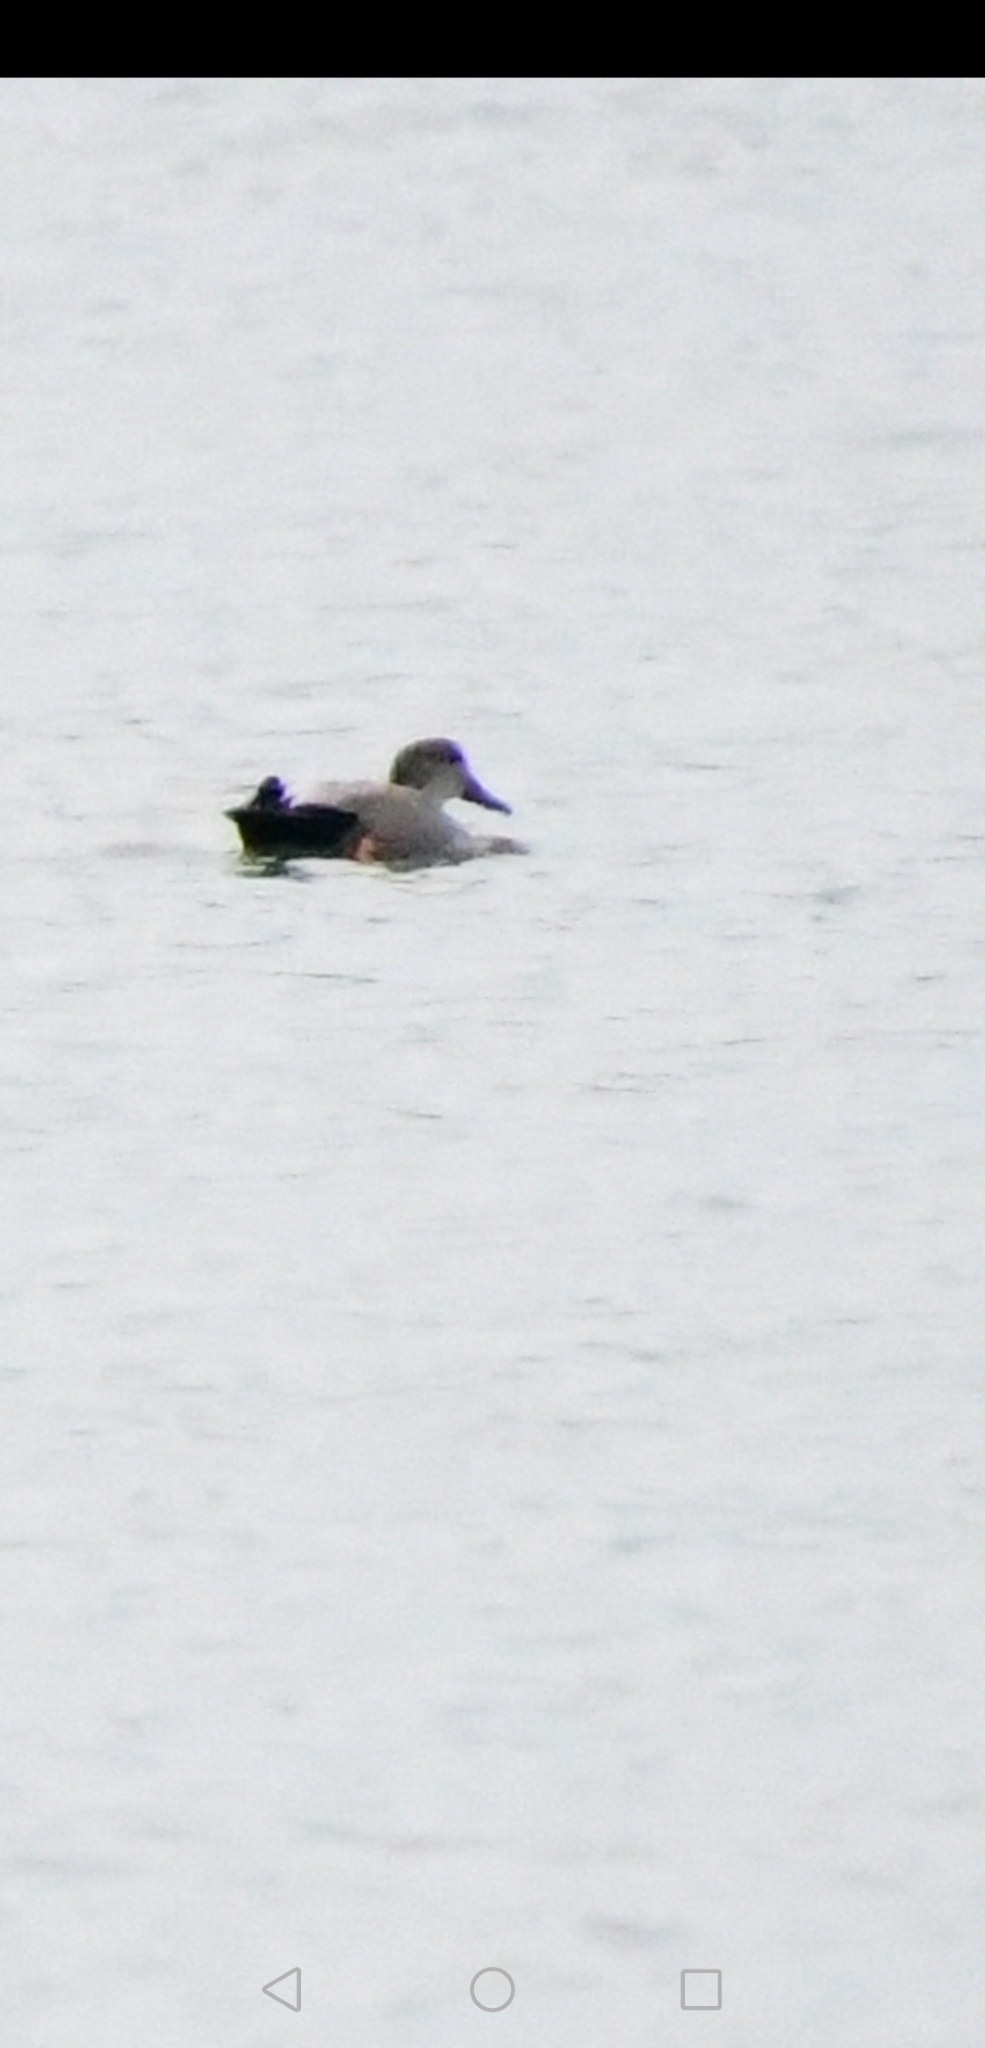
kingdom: Animalia
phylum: Chordata
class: Aves
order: Anseriformes
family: Anatidae
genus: Mareca
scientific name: Mareca strepera
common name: Gadwall
